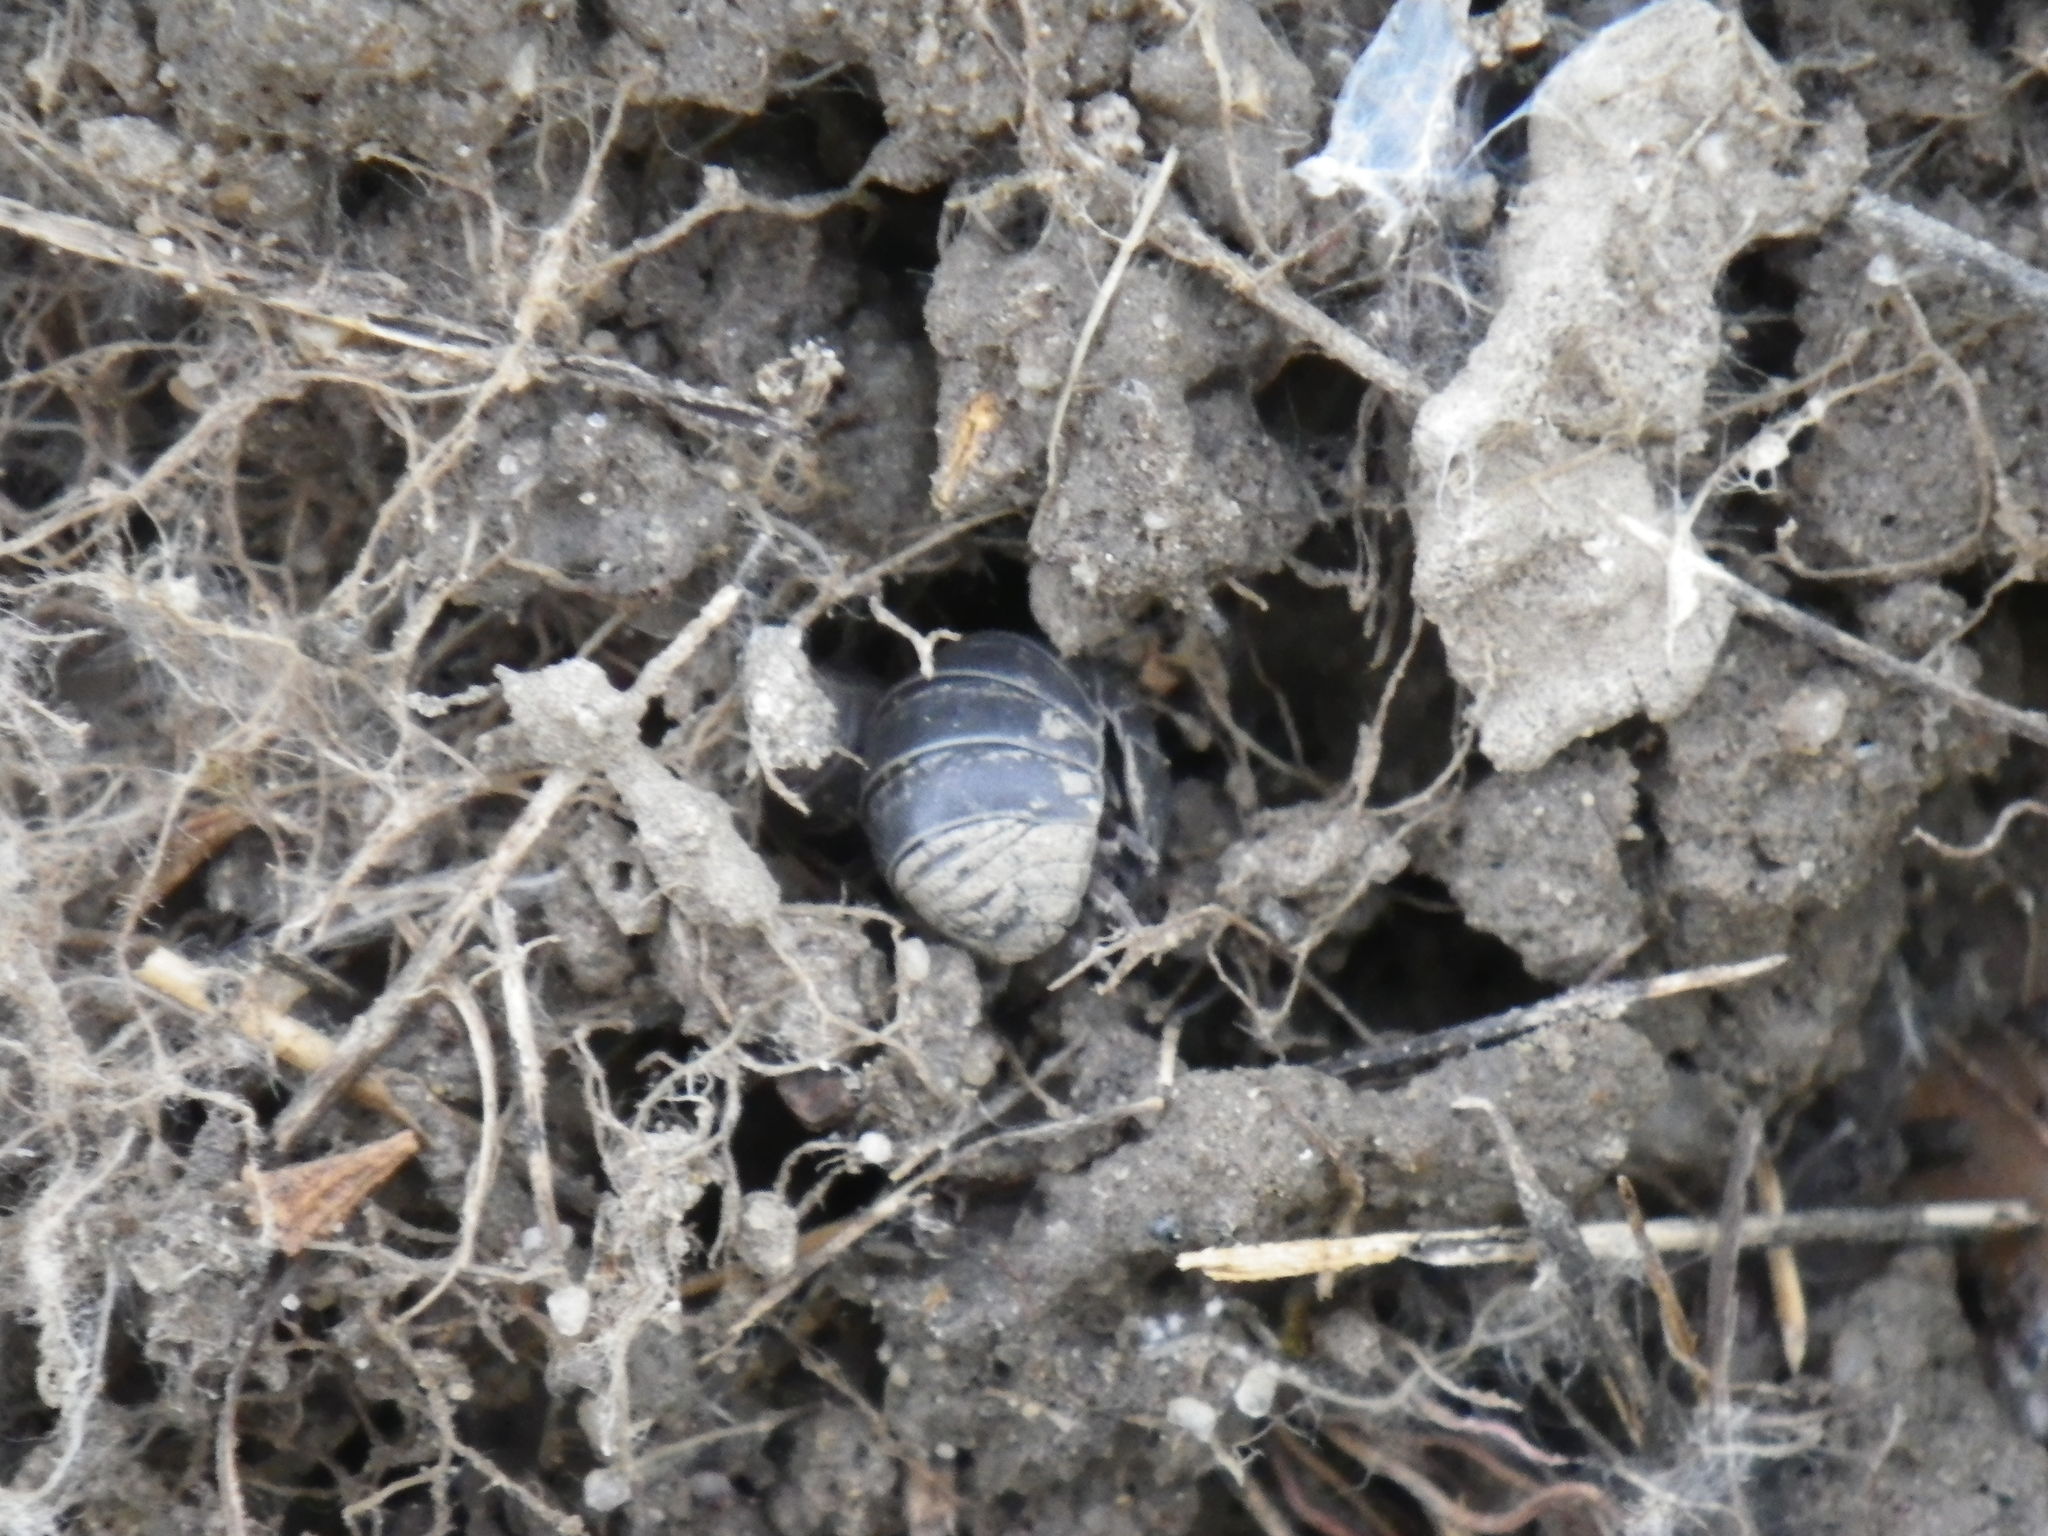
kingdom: Animalia
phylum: Arthropoda
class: Malacostraca
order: Isopoda
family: Armadillidiidae
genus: Armadillidium
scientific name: Armadillidium vulgare
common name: Common pill woodlouse
